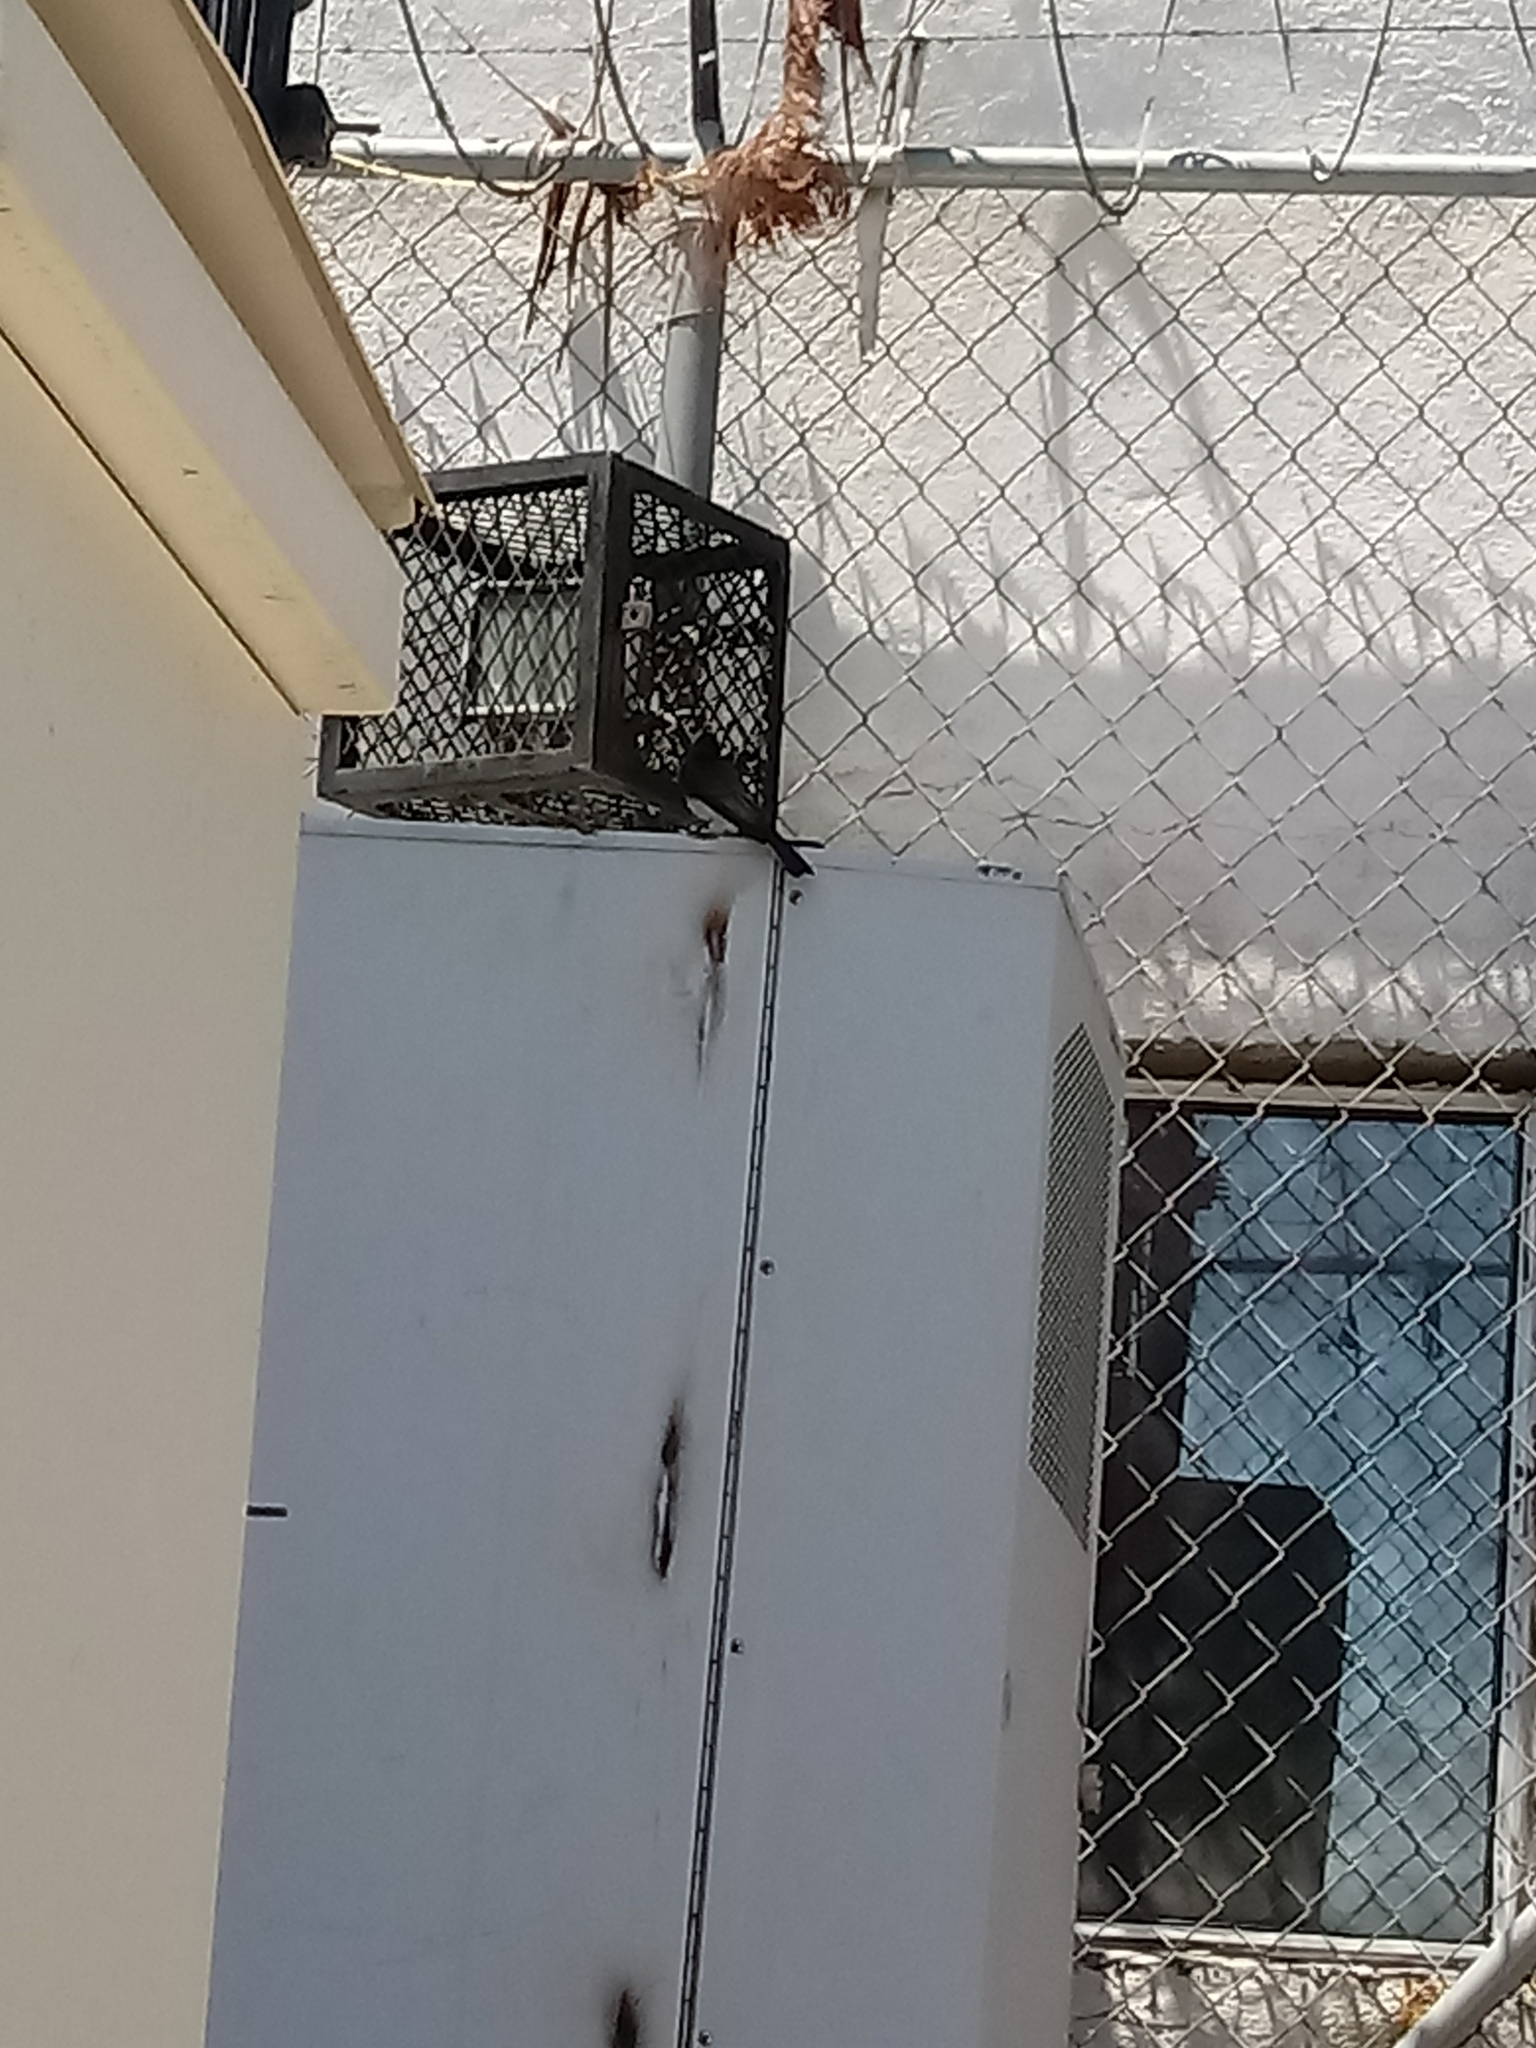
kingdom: Animalia
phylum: Chordata
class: Aves
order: Passeriformes
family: Tyrannidae
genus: Sayornis
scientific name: Sayornis nigricans
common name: Black phoebe
